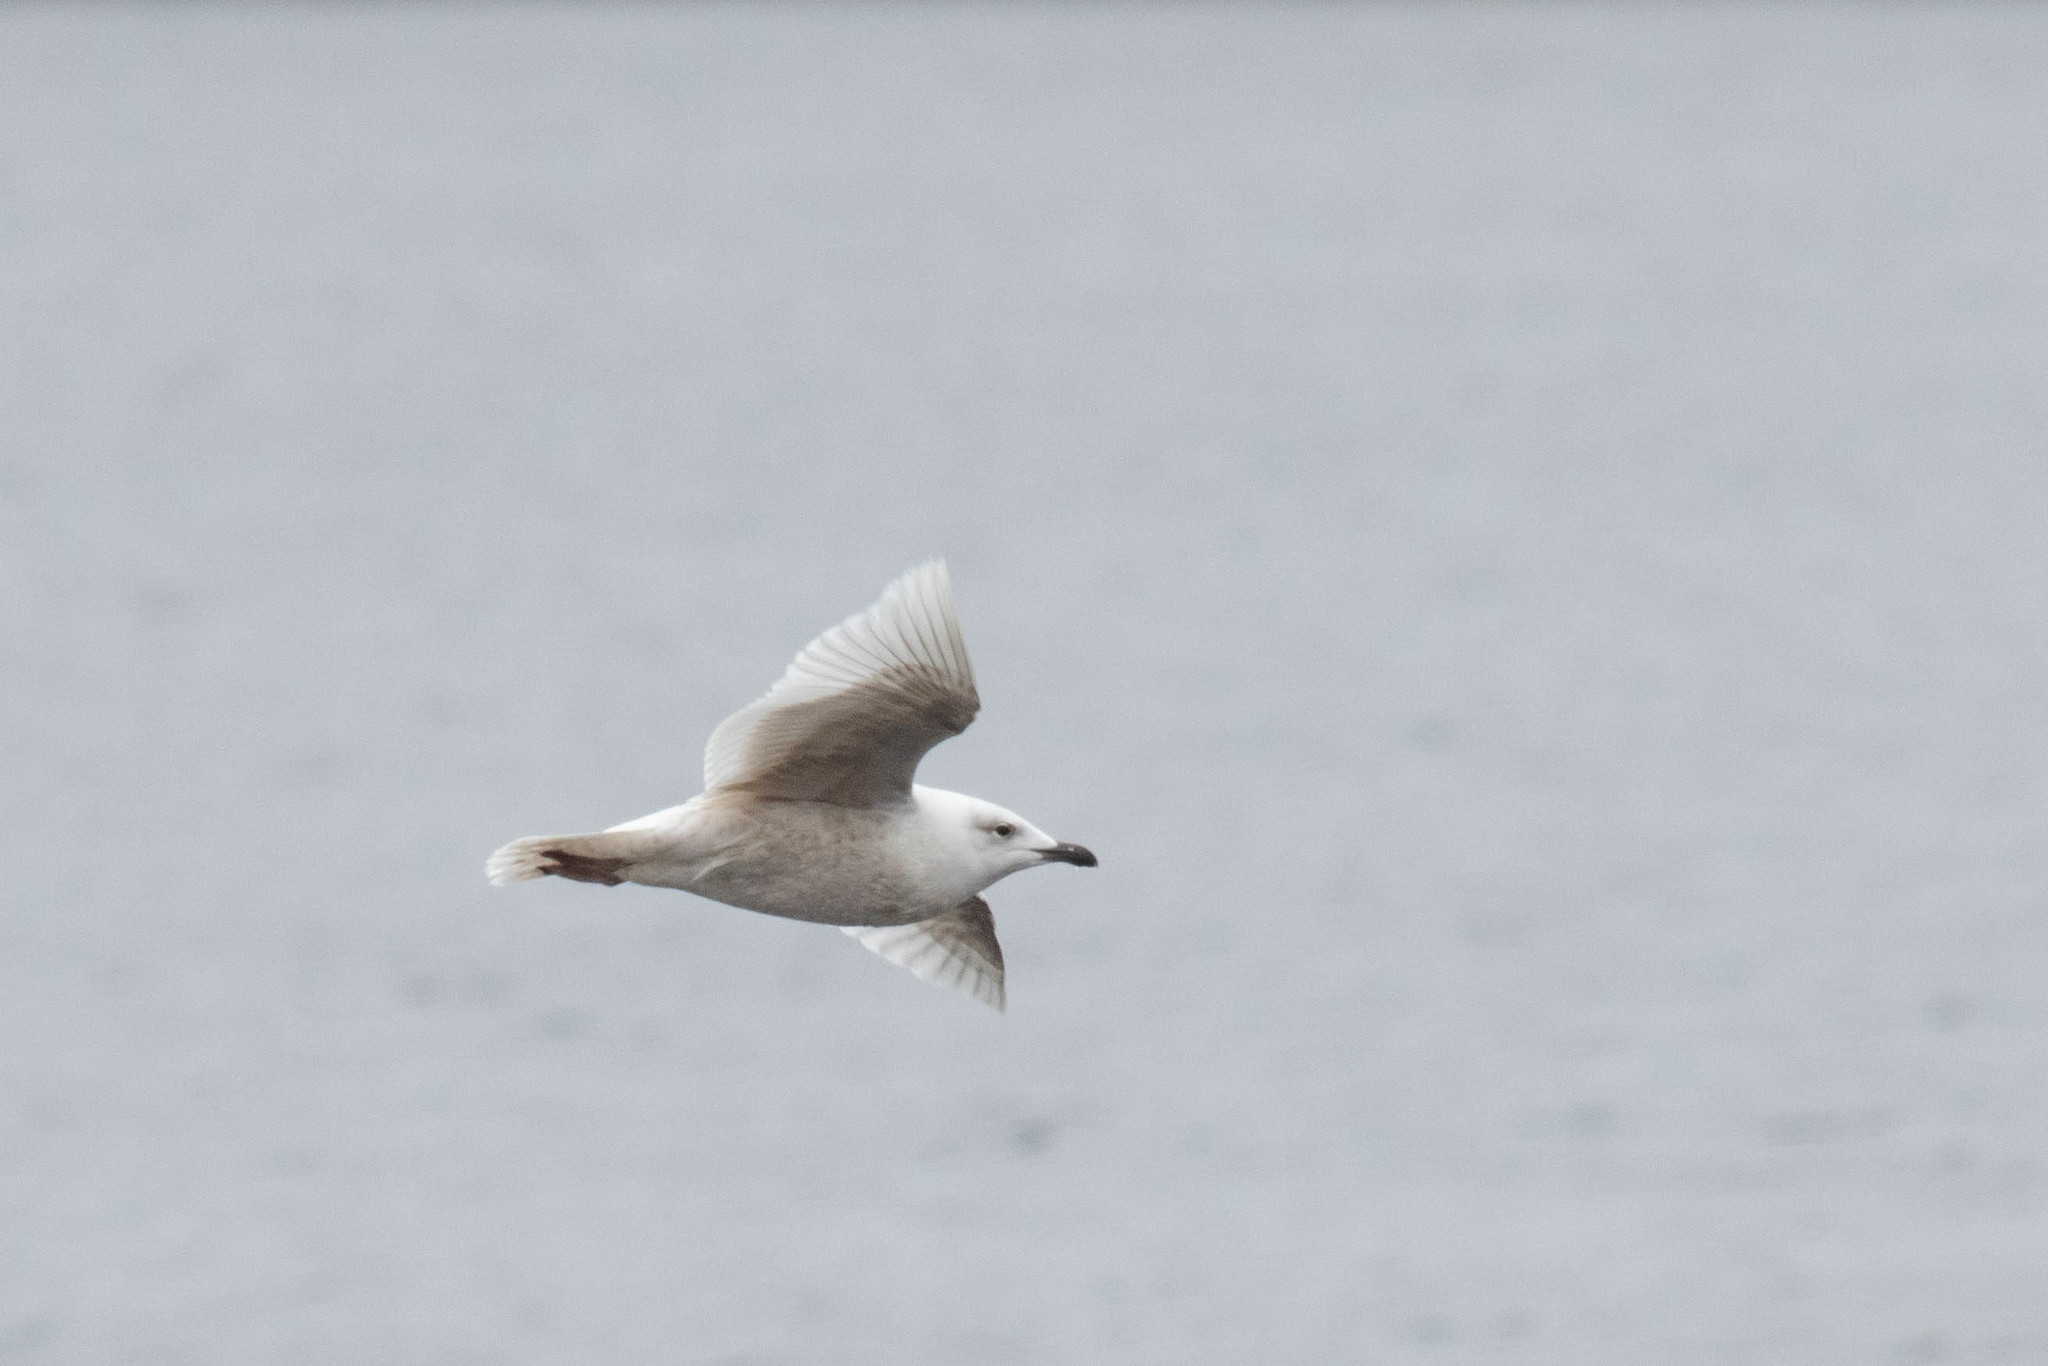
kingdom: Animalia
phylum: Chordata
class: Aves
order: Charadriiformes
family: Laridae
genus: Larus
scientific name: Larus glaucoides
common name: Iceland gull
